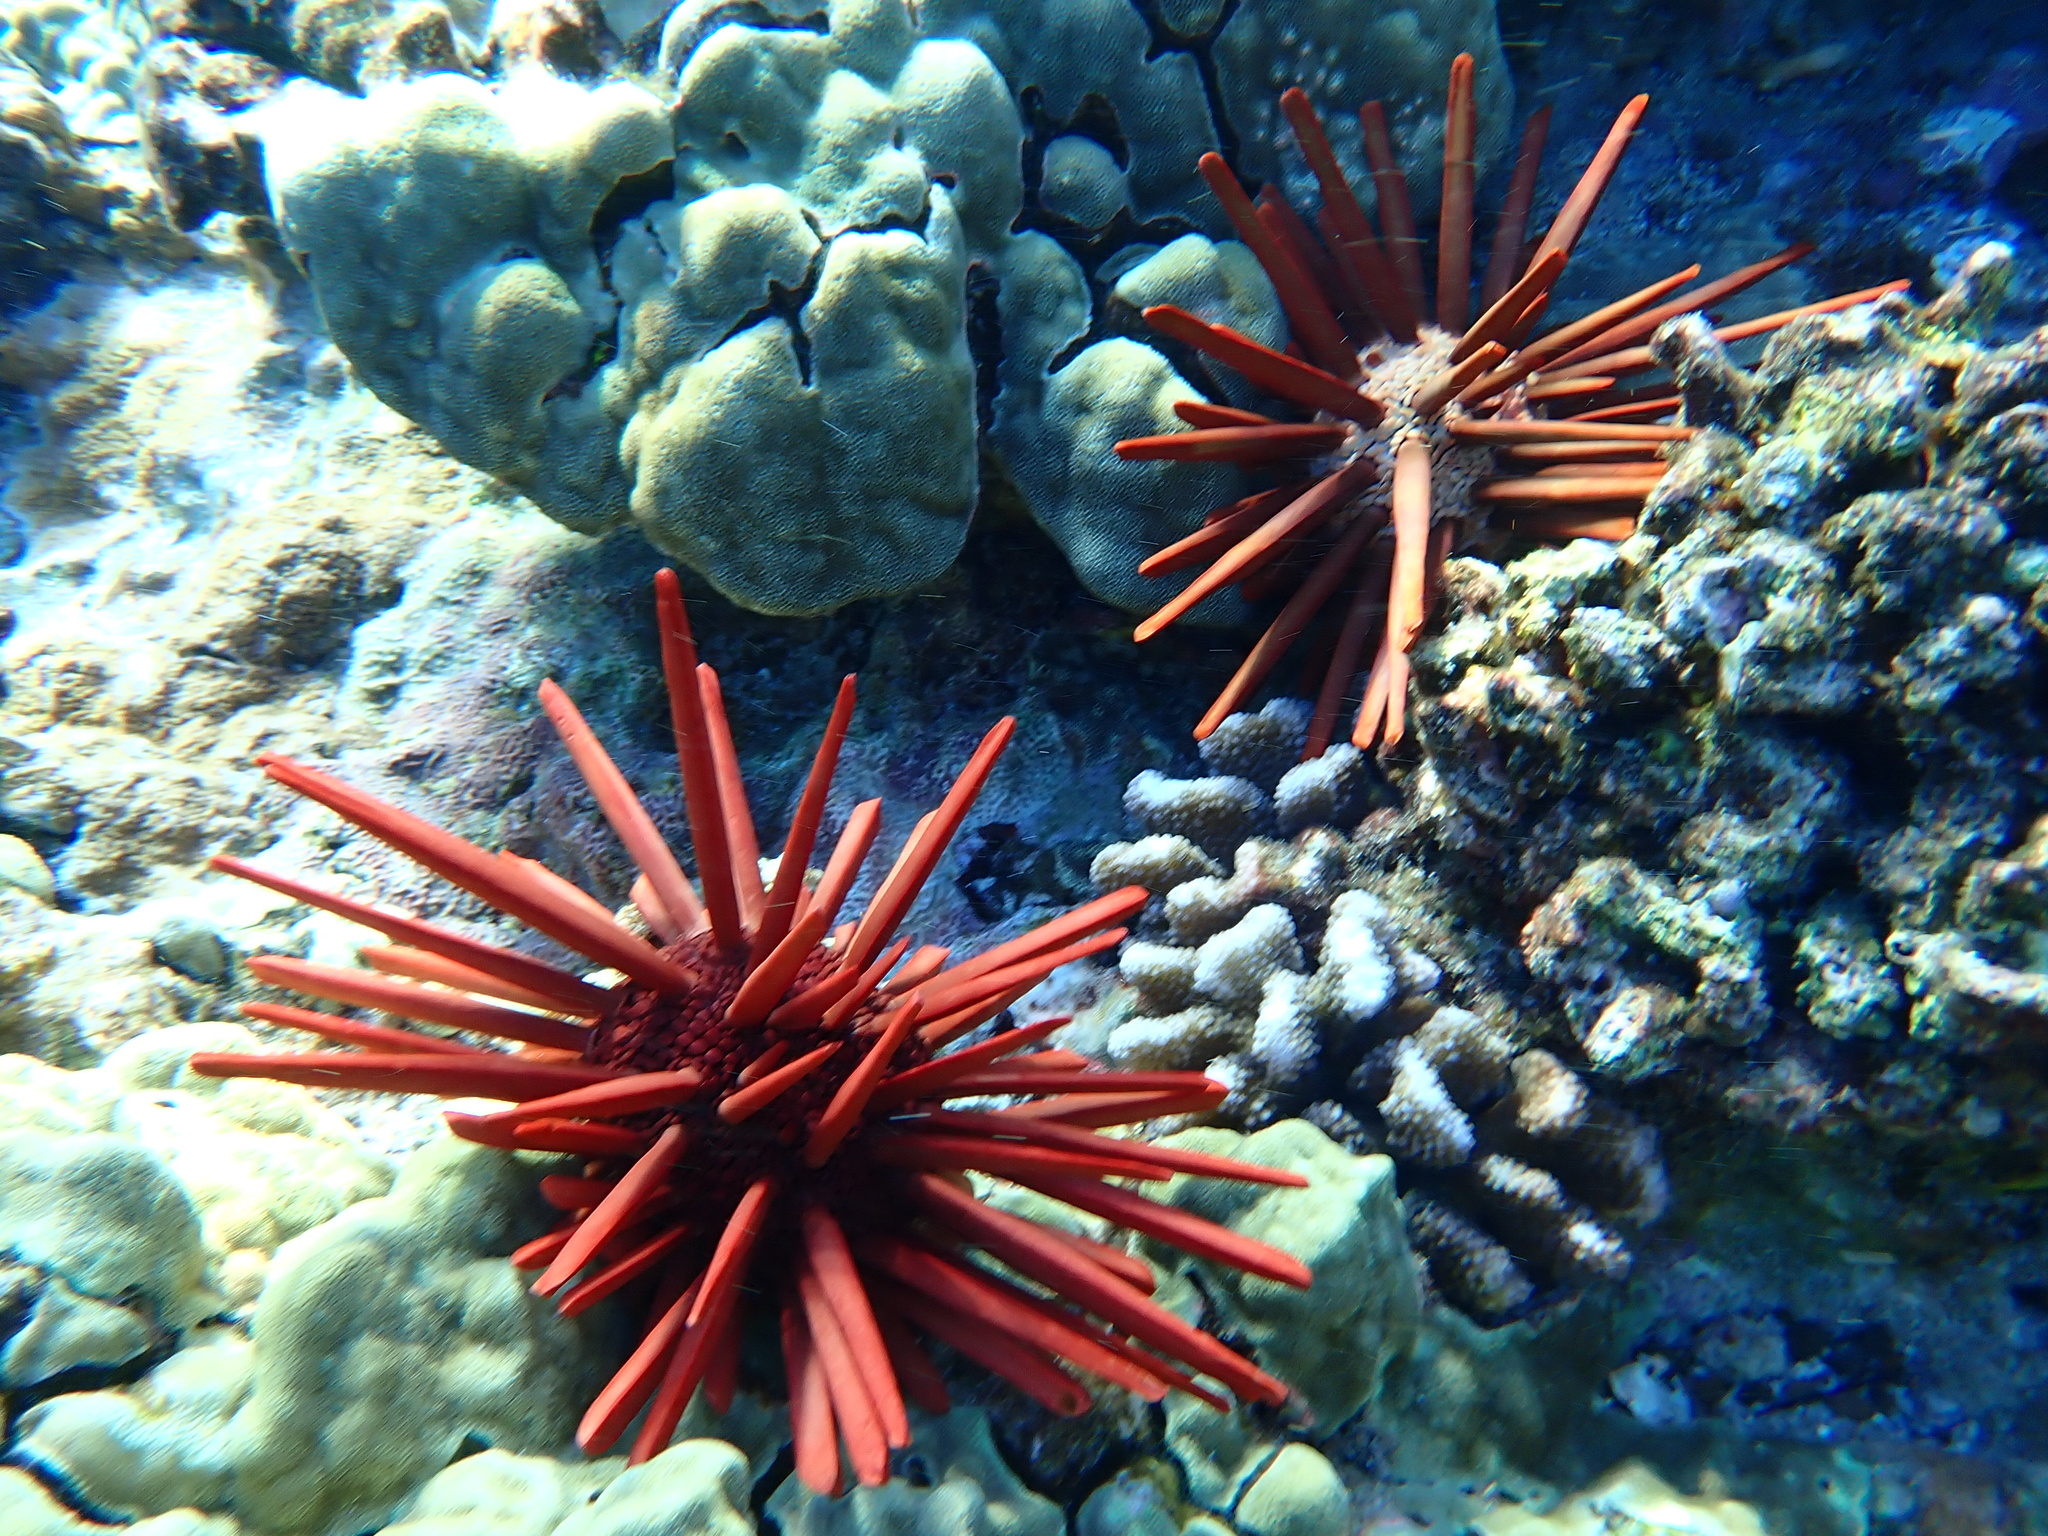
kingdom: Animalia
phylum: Echinodermata
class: Echinoidea
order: Camarodonta
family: Echinometridae
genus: Heterocentrotus
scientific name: Heterocentrotus mamillatus
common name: Slate pencil urchin
